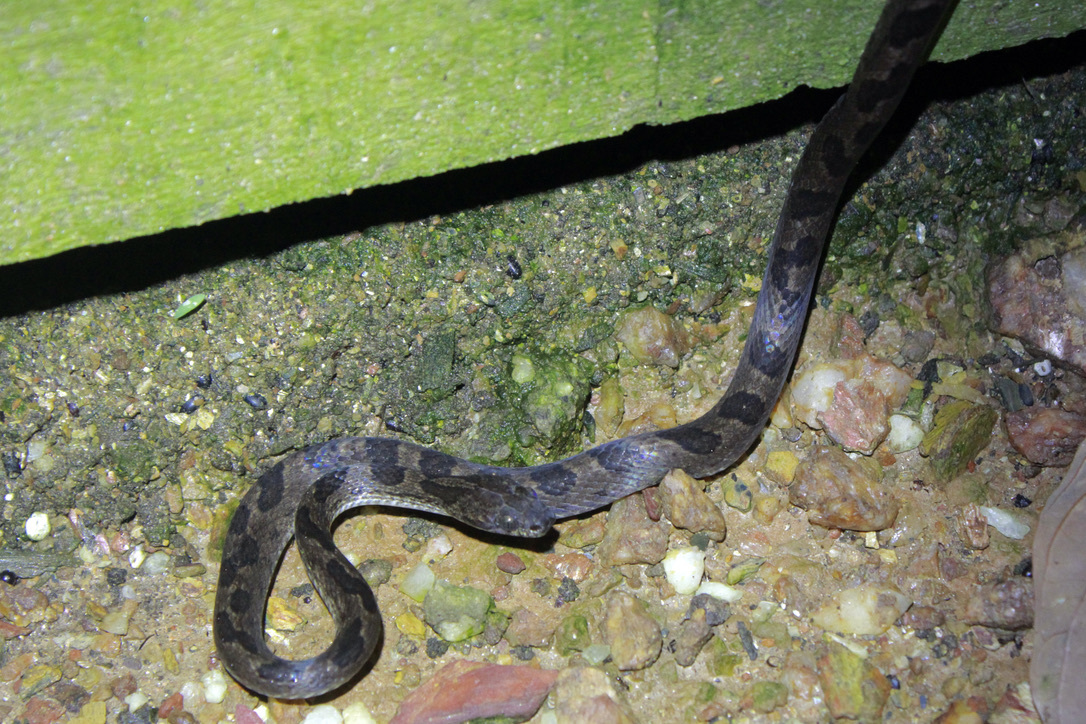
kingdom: Animalia
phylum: Chordata
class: Squamata
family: Colubridae
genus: Leptodeira
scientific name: Leptodeira ashmeadii
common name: Banded cat-eyed snake
